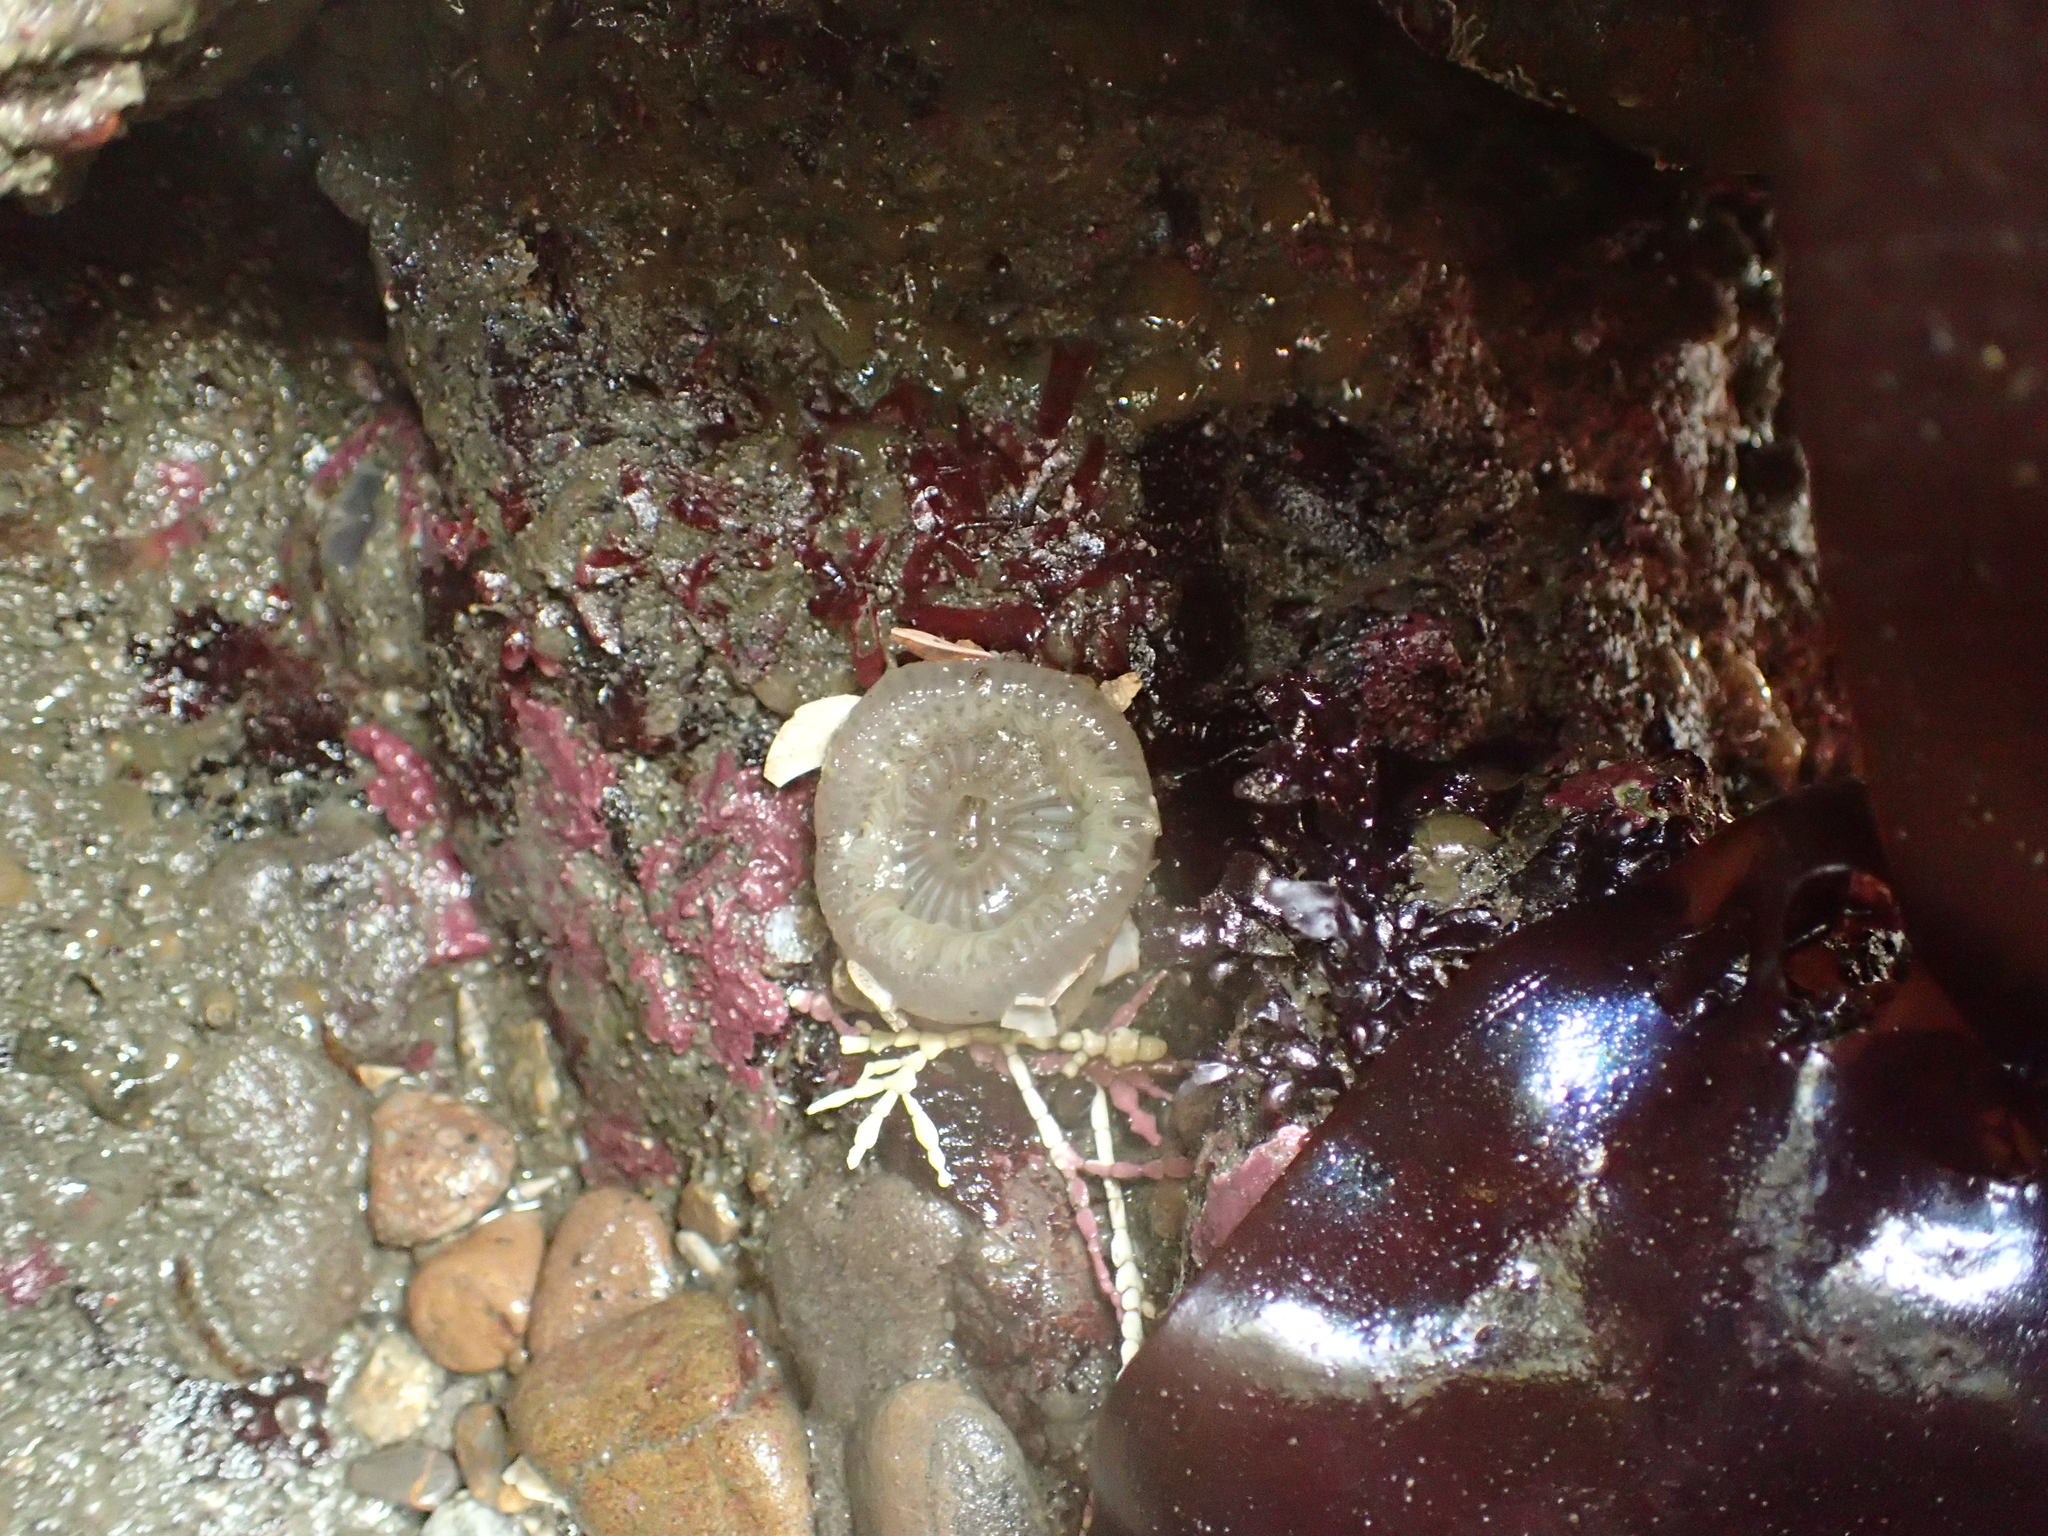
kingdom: Animalia
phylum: Cnidaria
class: Anthozoa
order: Actiniaria
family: Actiniidae
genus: Anthopleura
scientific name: Anthopleura sola
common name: Sun anemone
